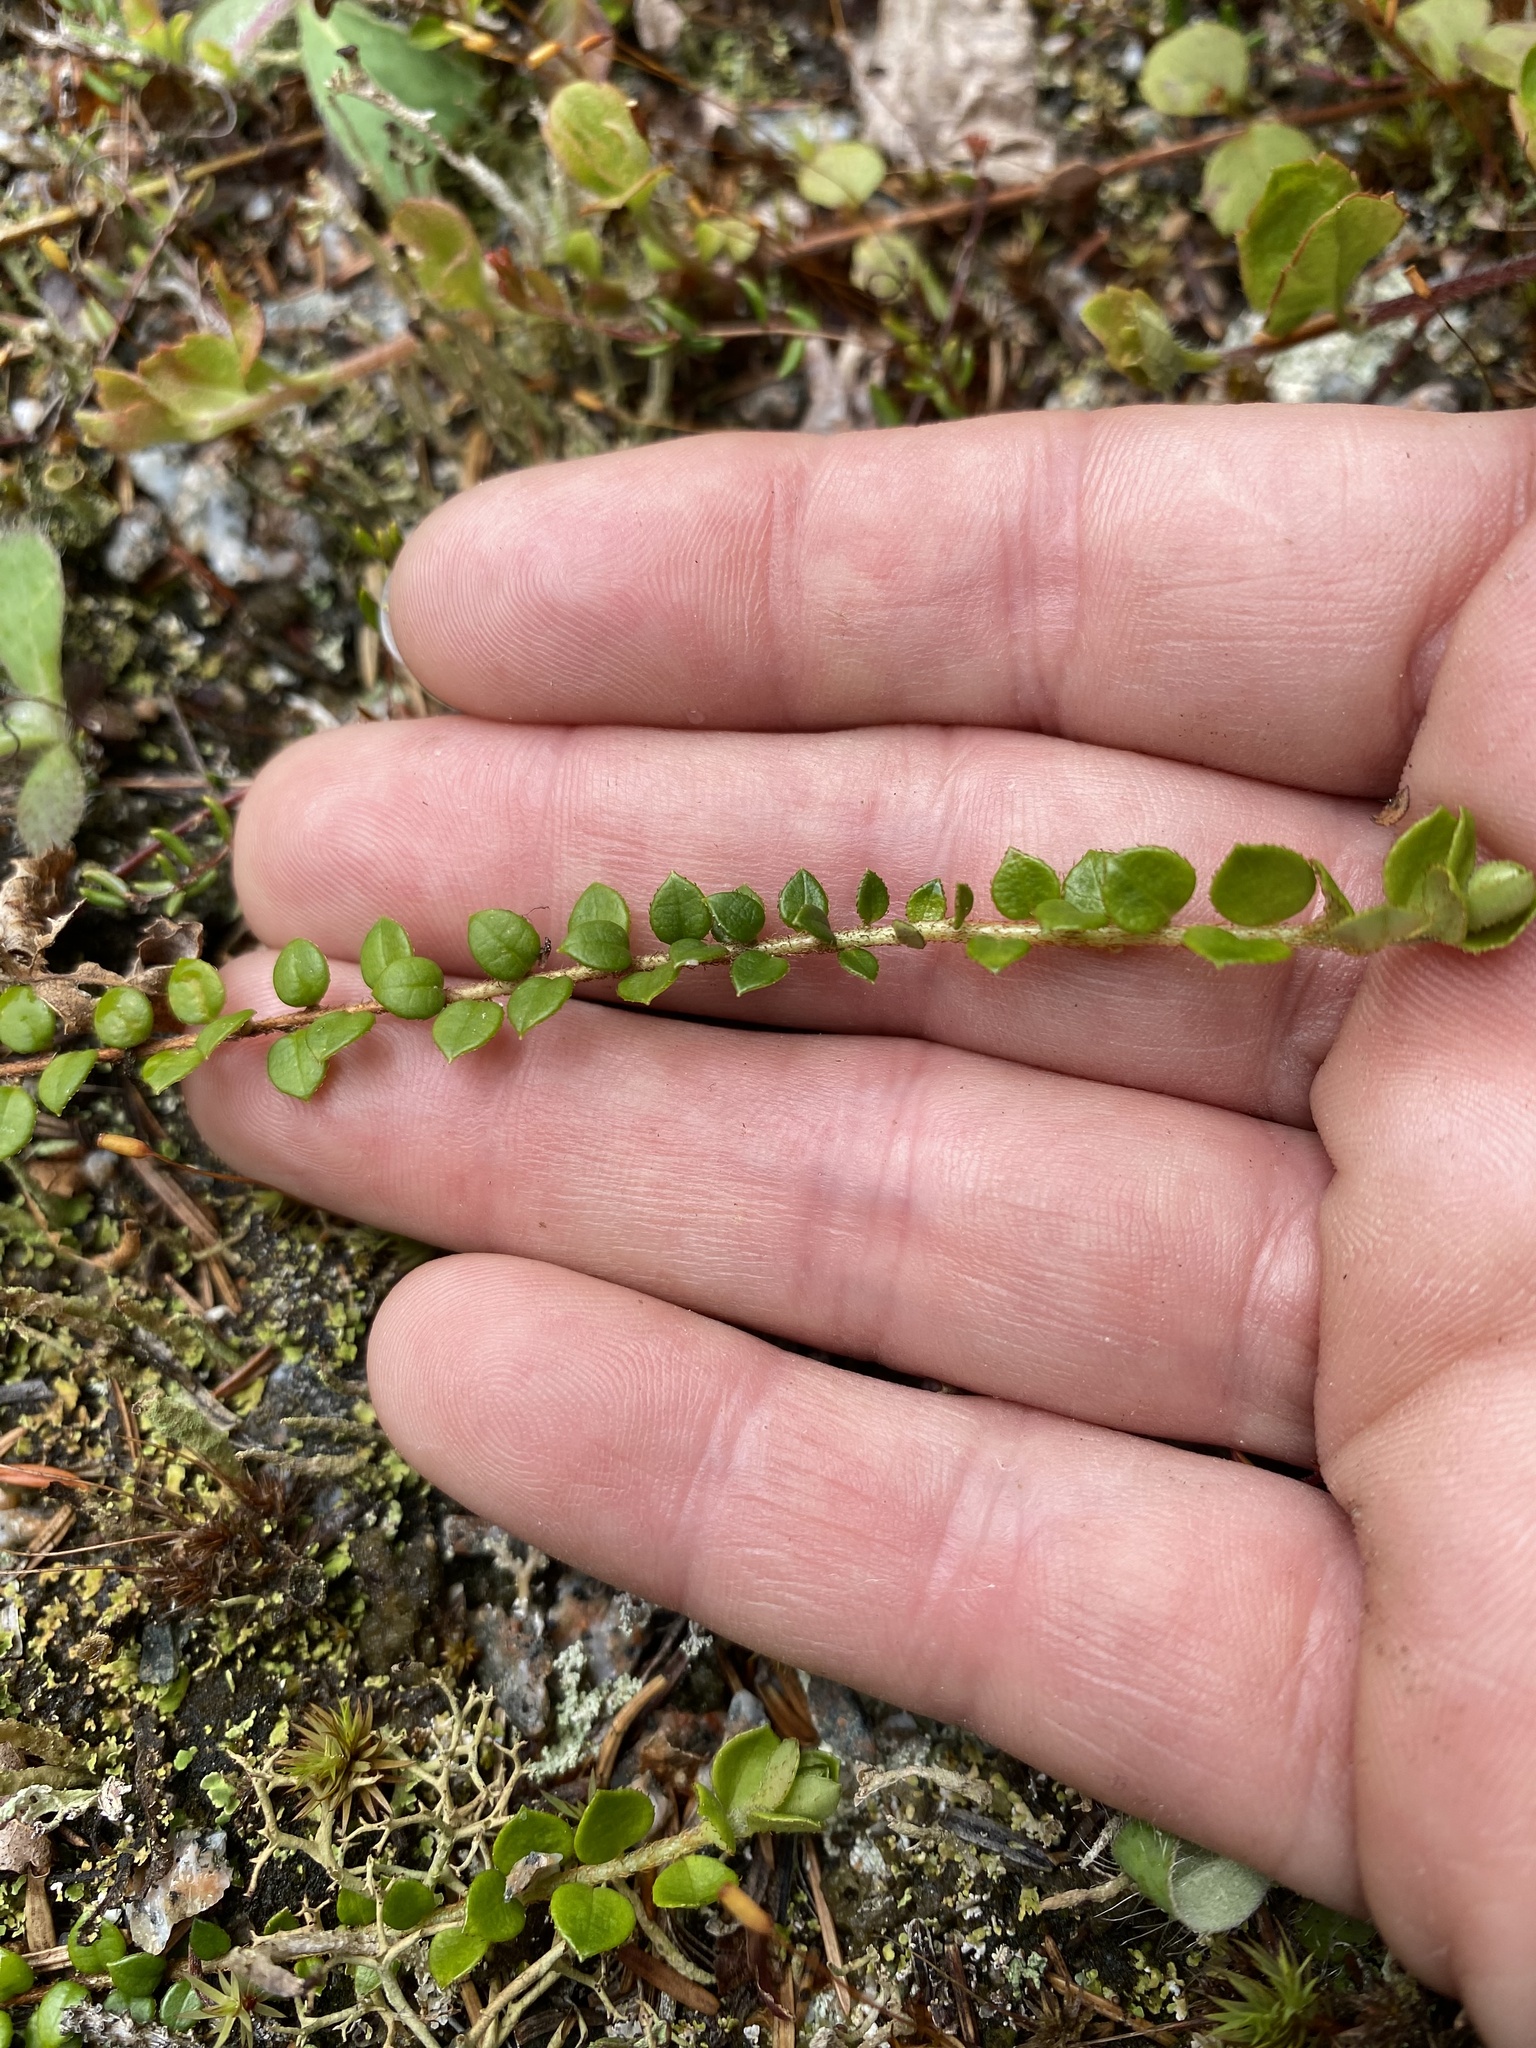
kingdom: Plantae
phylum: Tracheophyta
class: Magnoliopsida
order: Ericales
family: Ericaceae
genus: Gaultheria
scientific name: Gaultheria hispidula
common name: Cancer wintergreen
